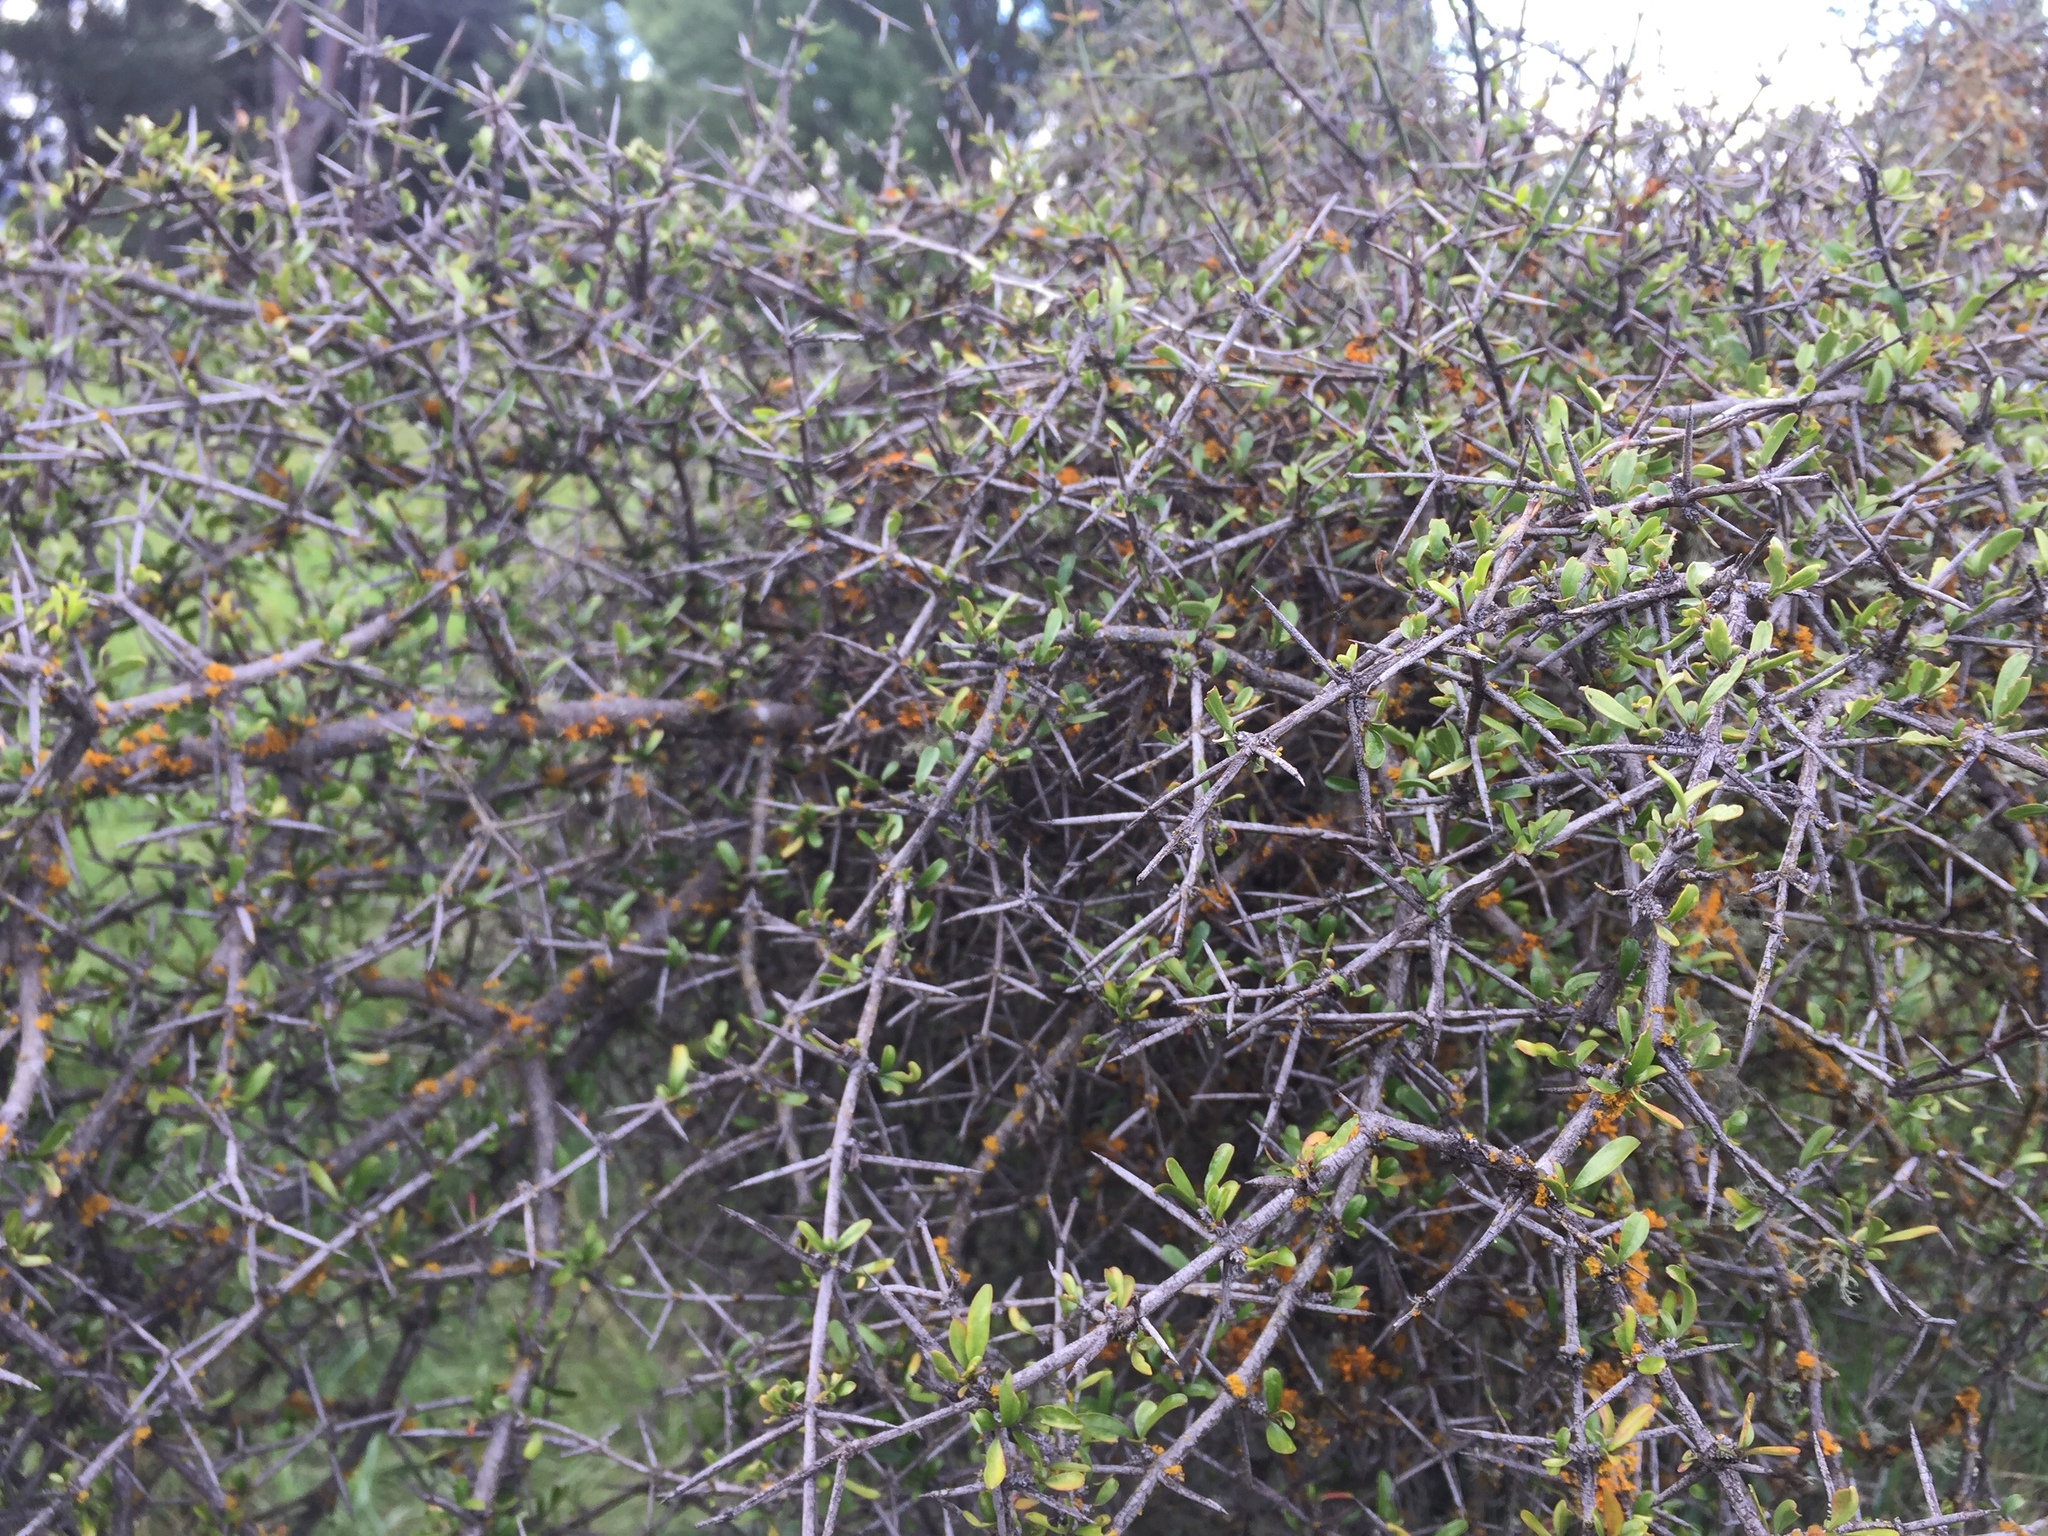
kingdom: Plantae
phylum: Tracheophyta
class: Magnoliopsida
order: Rosales
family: Rhamnaceae
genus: Discaria
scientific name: Discaria toumatou
